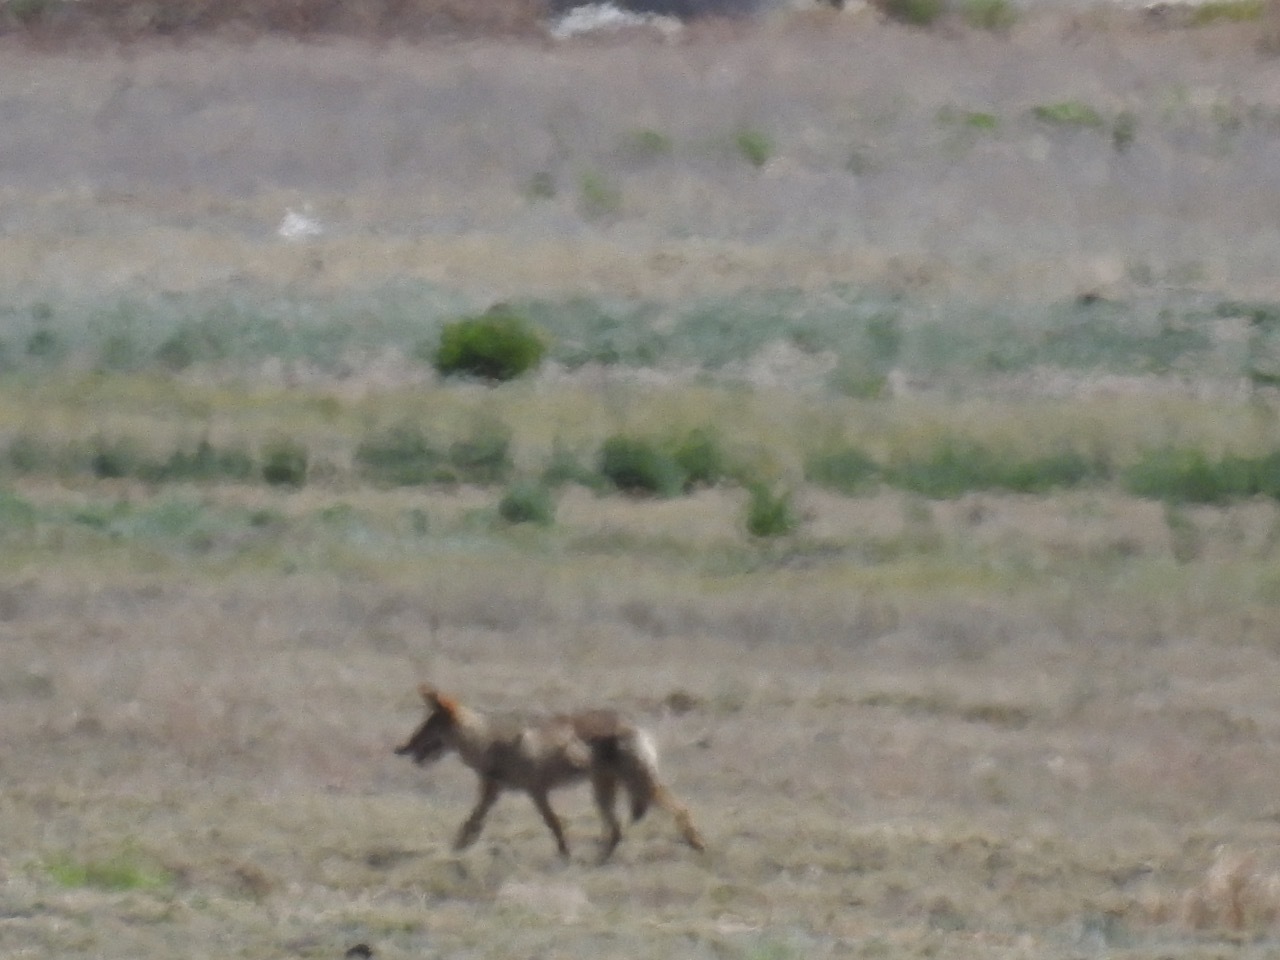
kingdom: Animalia
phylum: Chordata
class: Mammalia
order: Carnivora
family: Canidae
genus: Canis
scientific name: Canis latrans
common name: Coyote
